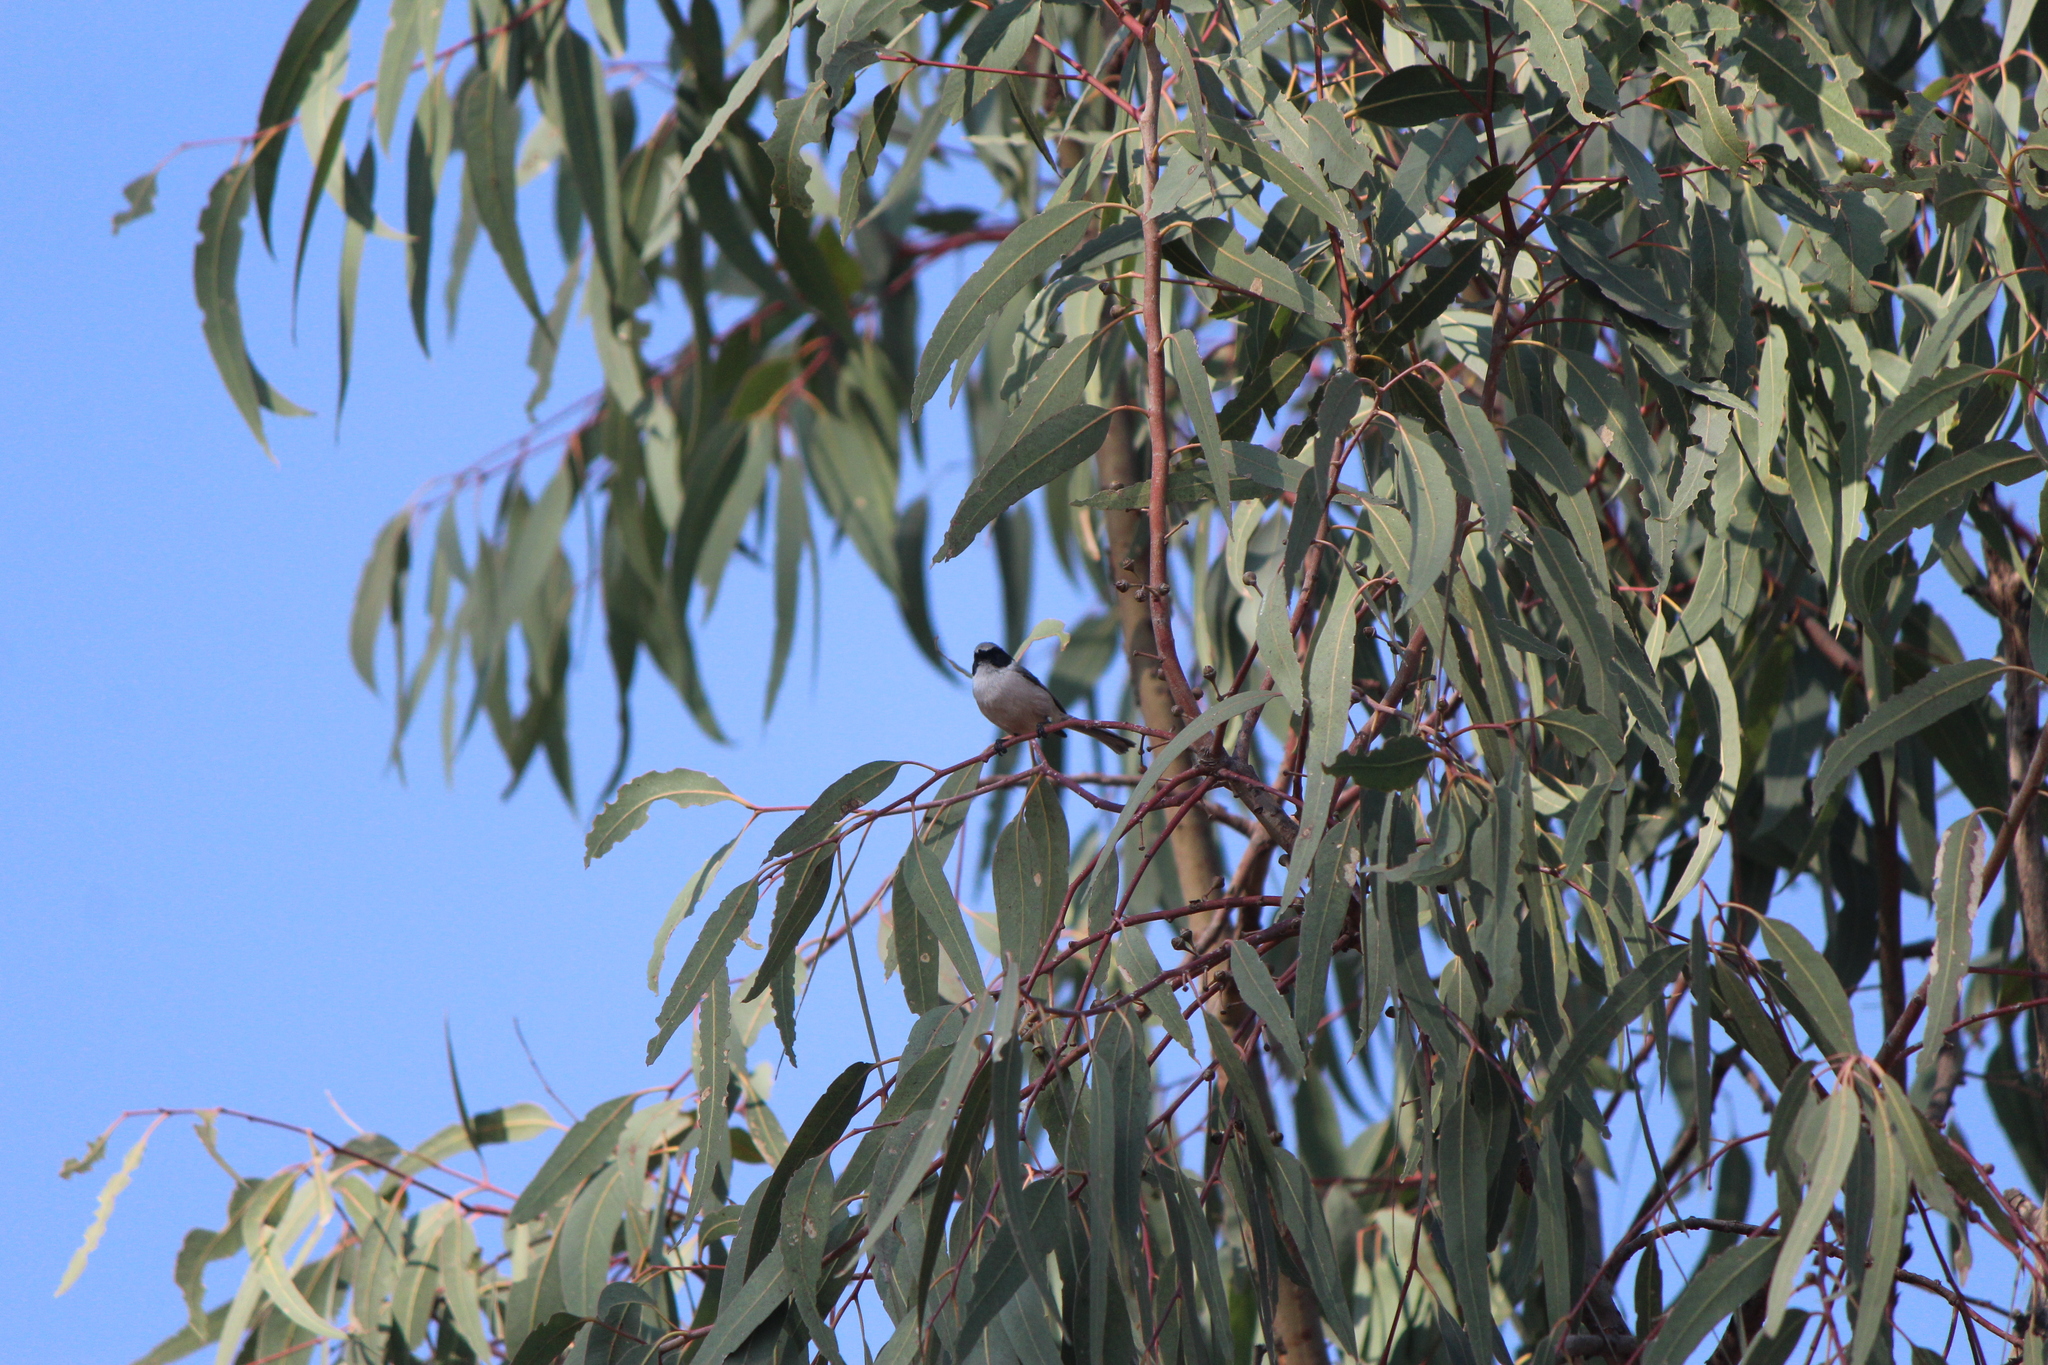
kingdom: Animalia
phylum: Chordata
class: Aves
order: Passeriformes
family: Aegithalidae
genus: Psaltriparus
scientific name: Psaltriparus minimus
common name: American bushtit
